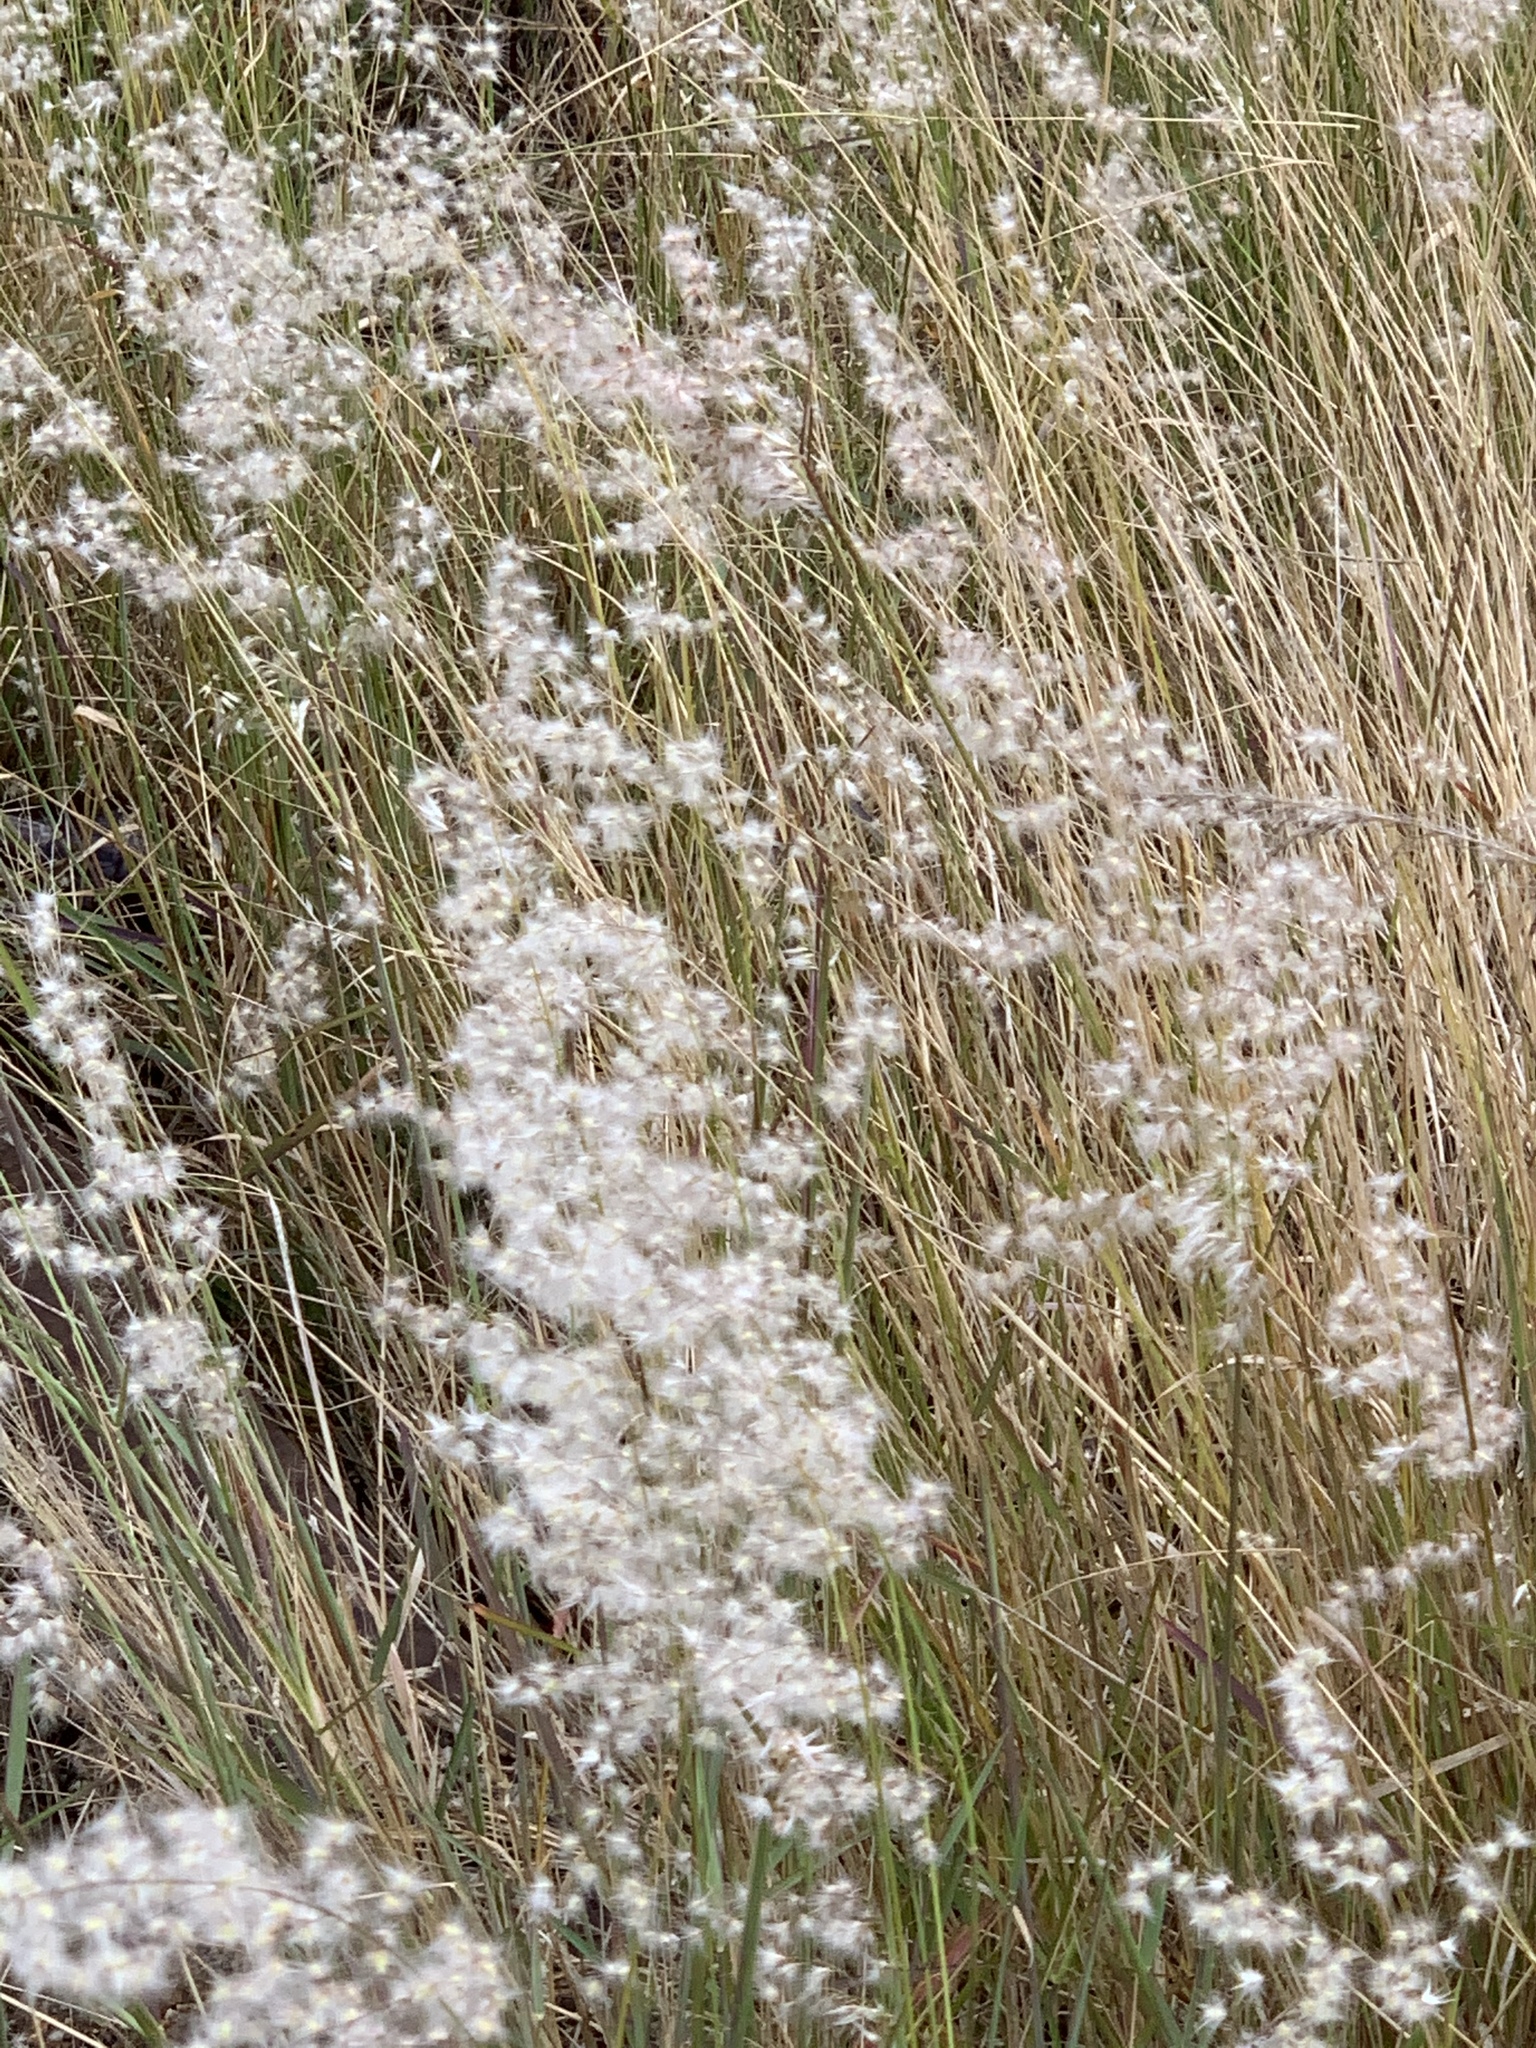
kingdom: Plantae
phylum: Tracheophyta
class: Liliopsida
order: Poales
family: Poaceae
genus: Melinis
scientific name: Melinis repens
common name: Rose natal grass
